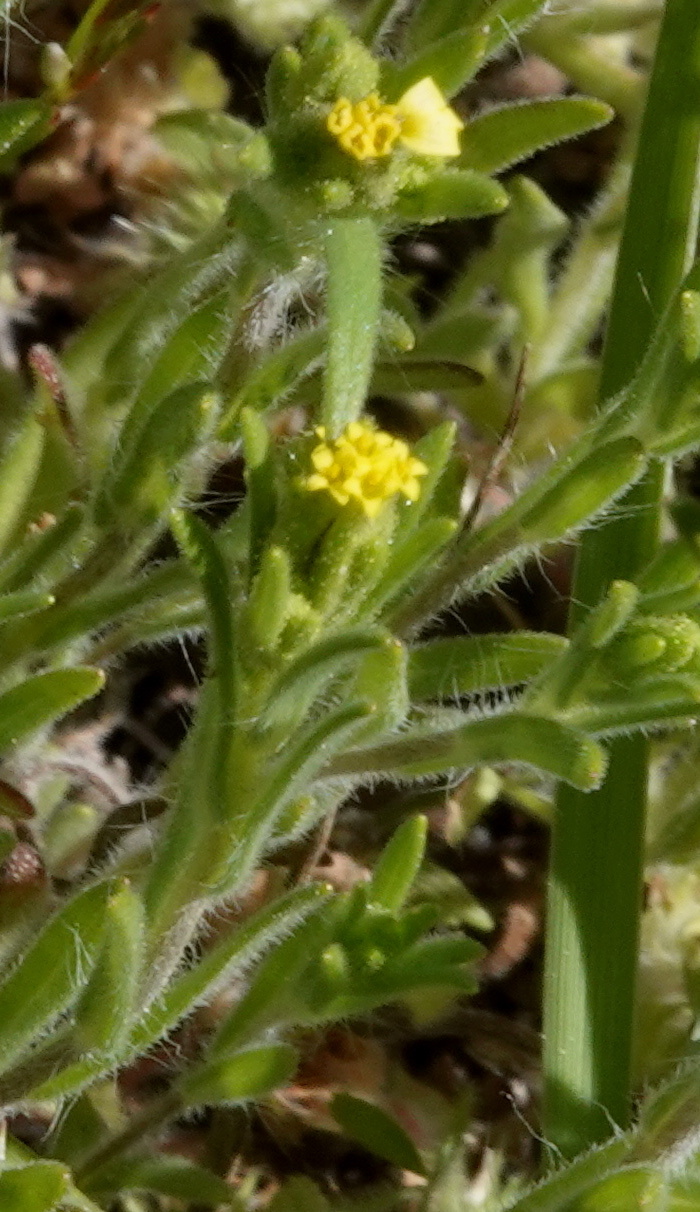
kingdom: Plantae
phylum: Tracheophyta
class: Magnoliopsida
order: Asterales
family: Asteraceae
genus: Madia
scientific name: Madia glomerata
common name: Mountain tarweed
